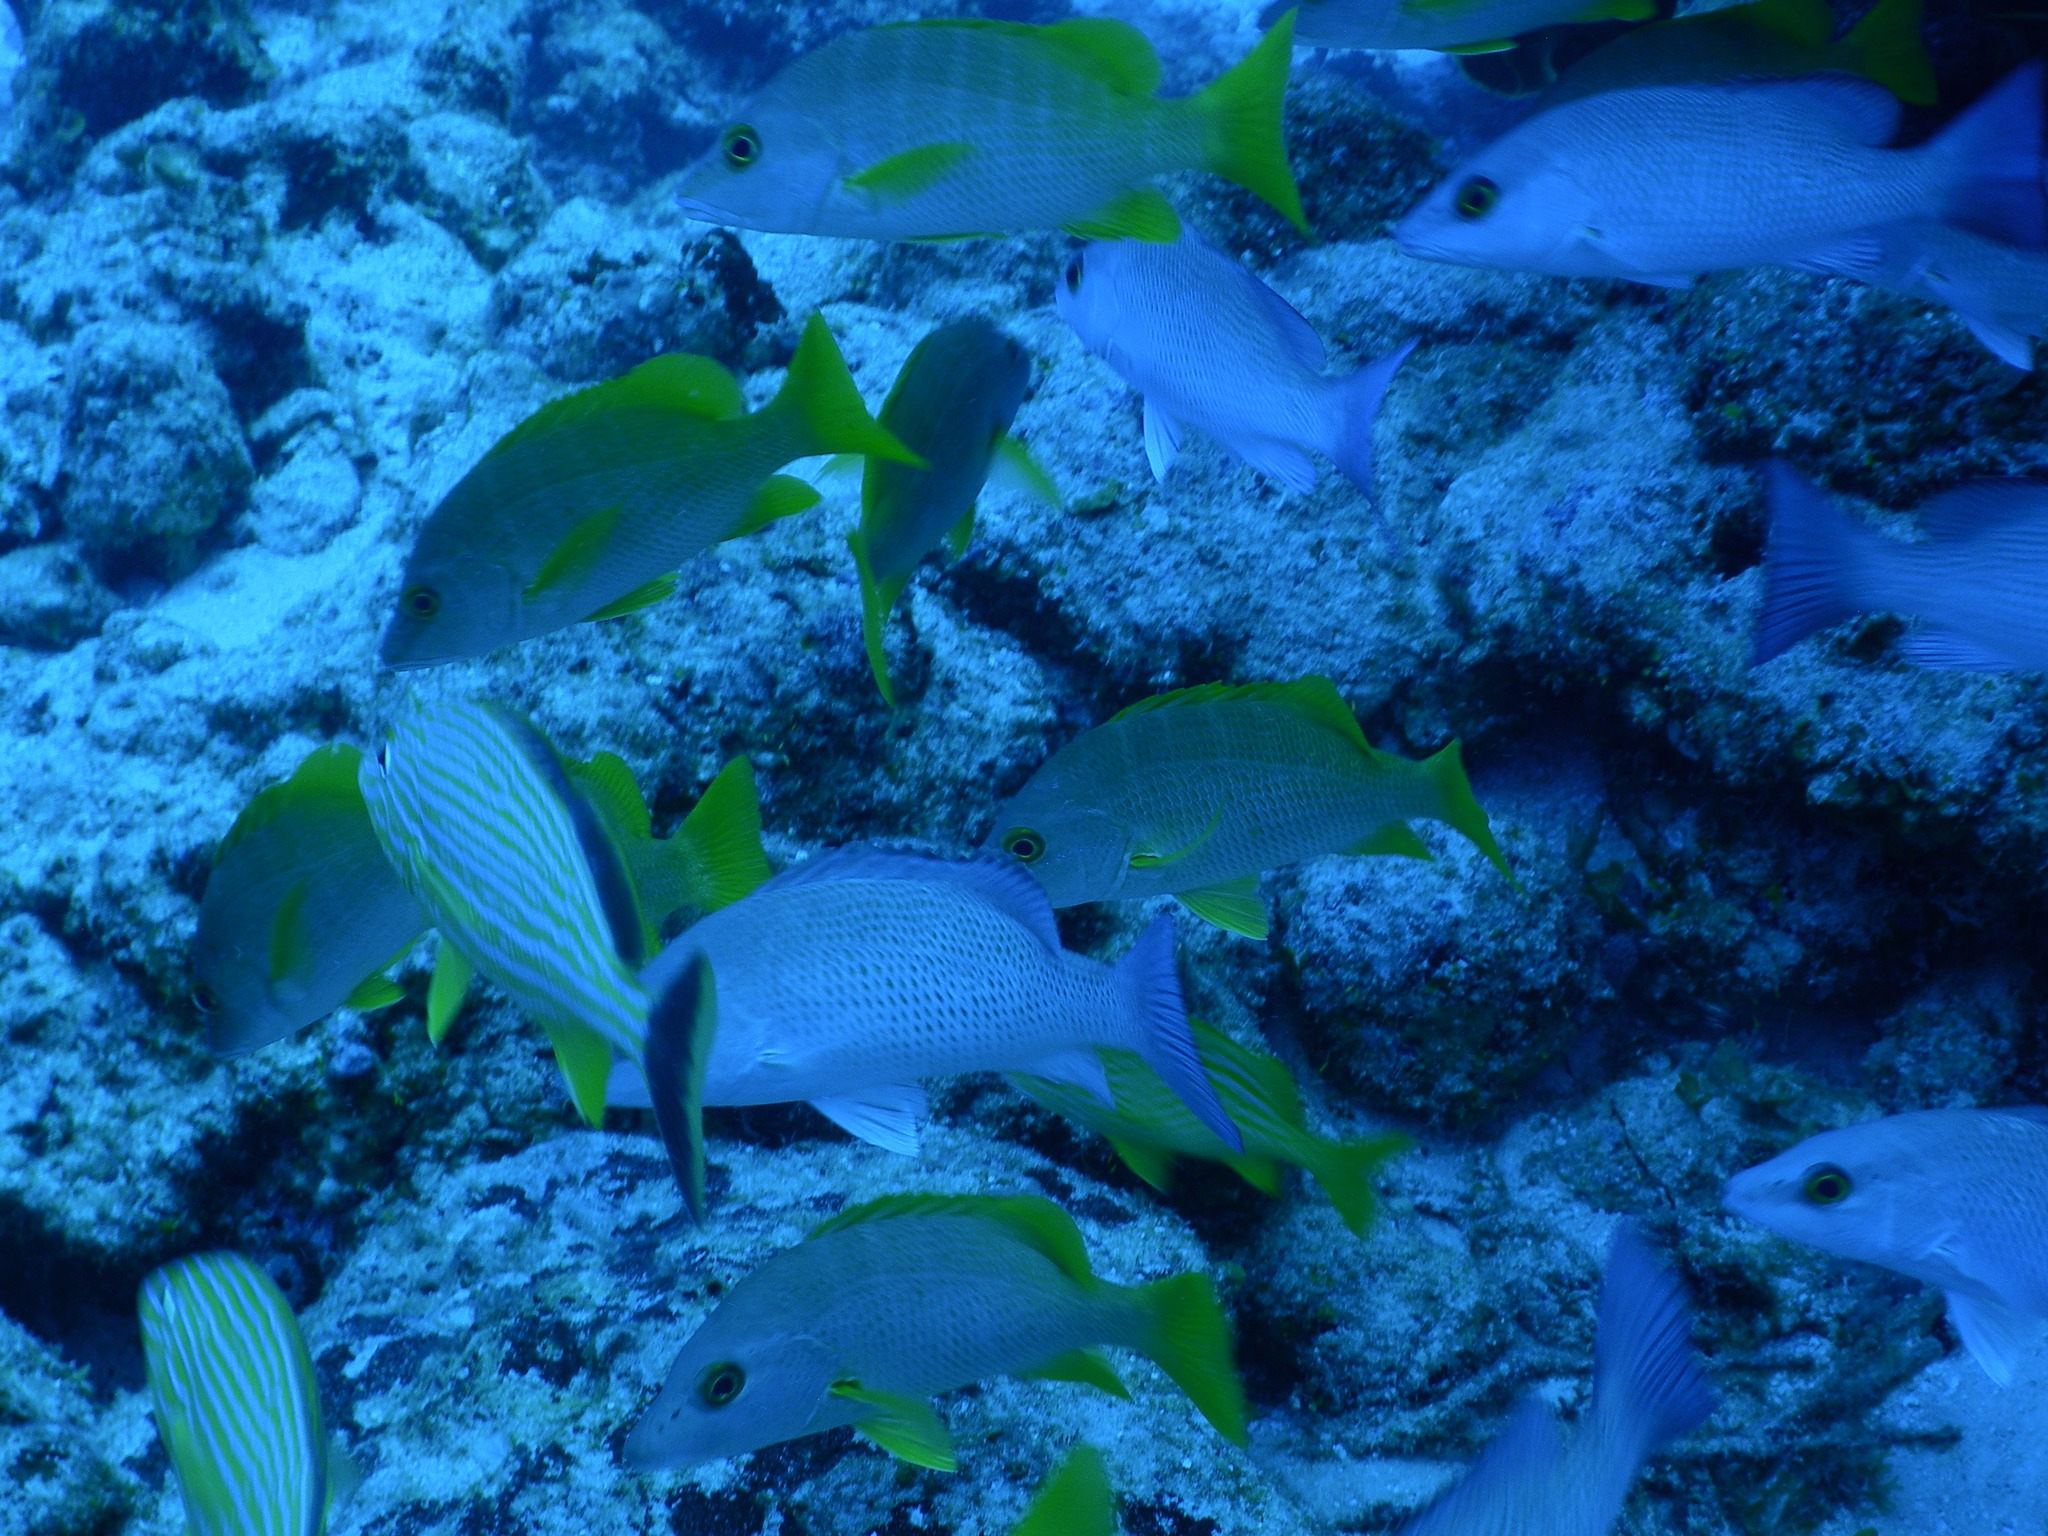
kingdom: Animalia
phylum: Chordata
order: Perciformes
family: Lutjanidae
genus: Lutjanus
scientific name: Lutjanus apodus
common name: Schoolmaster
